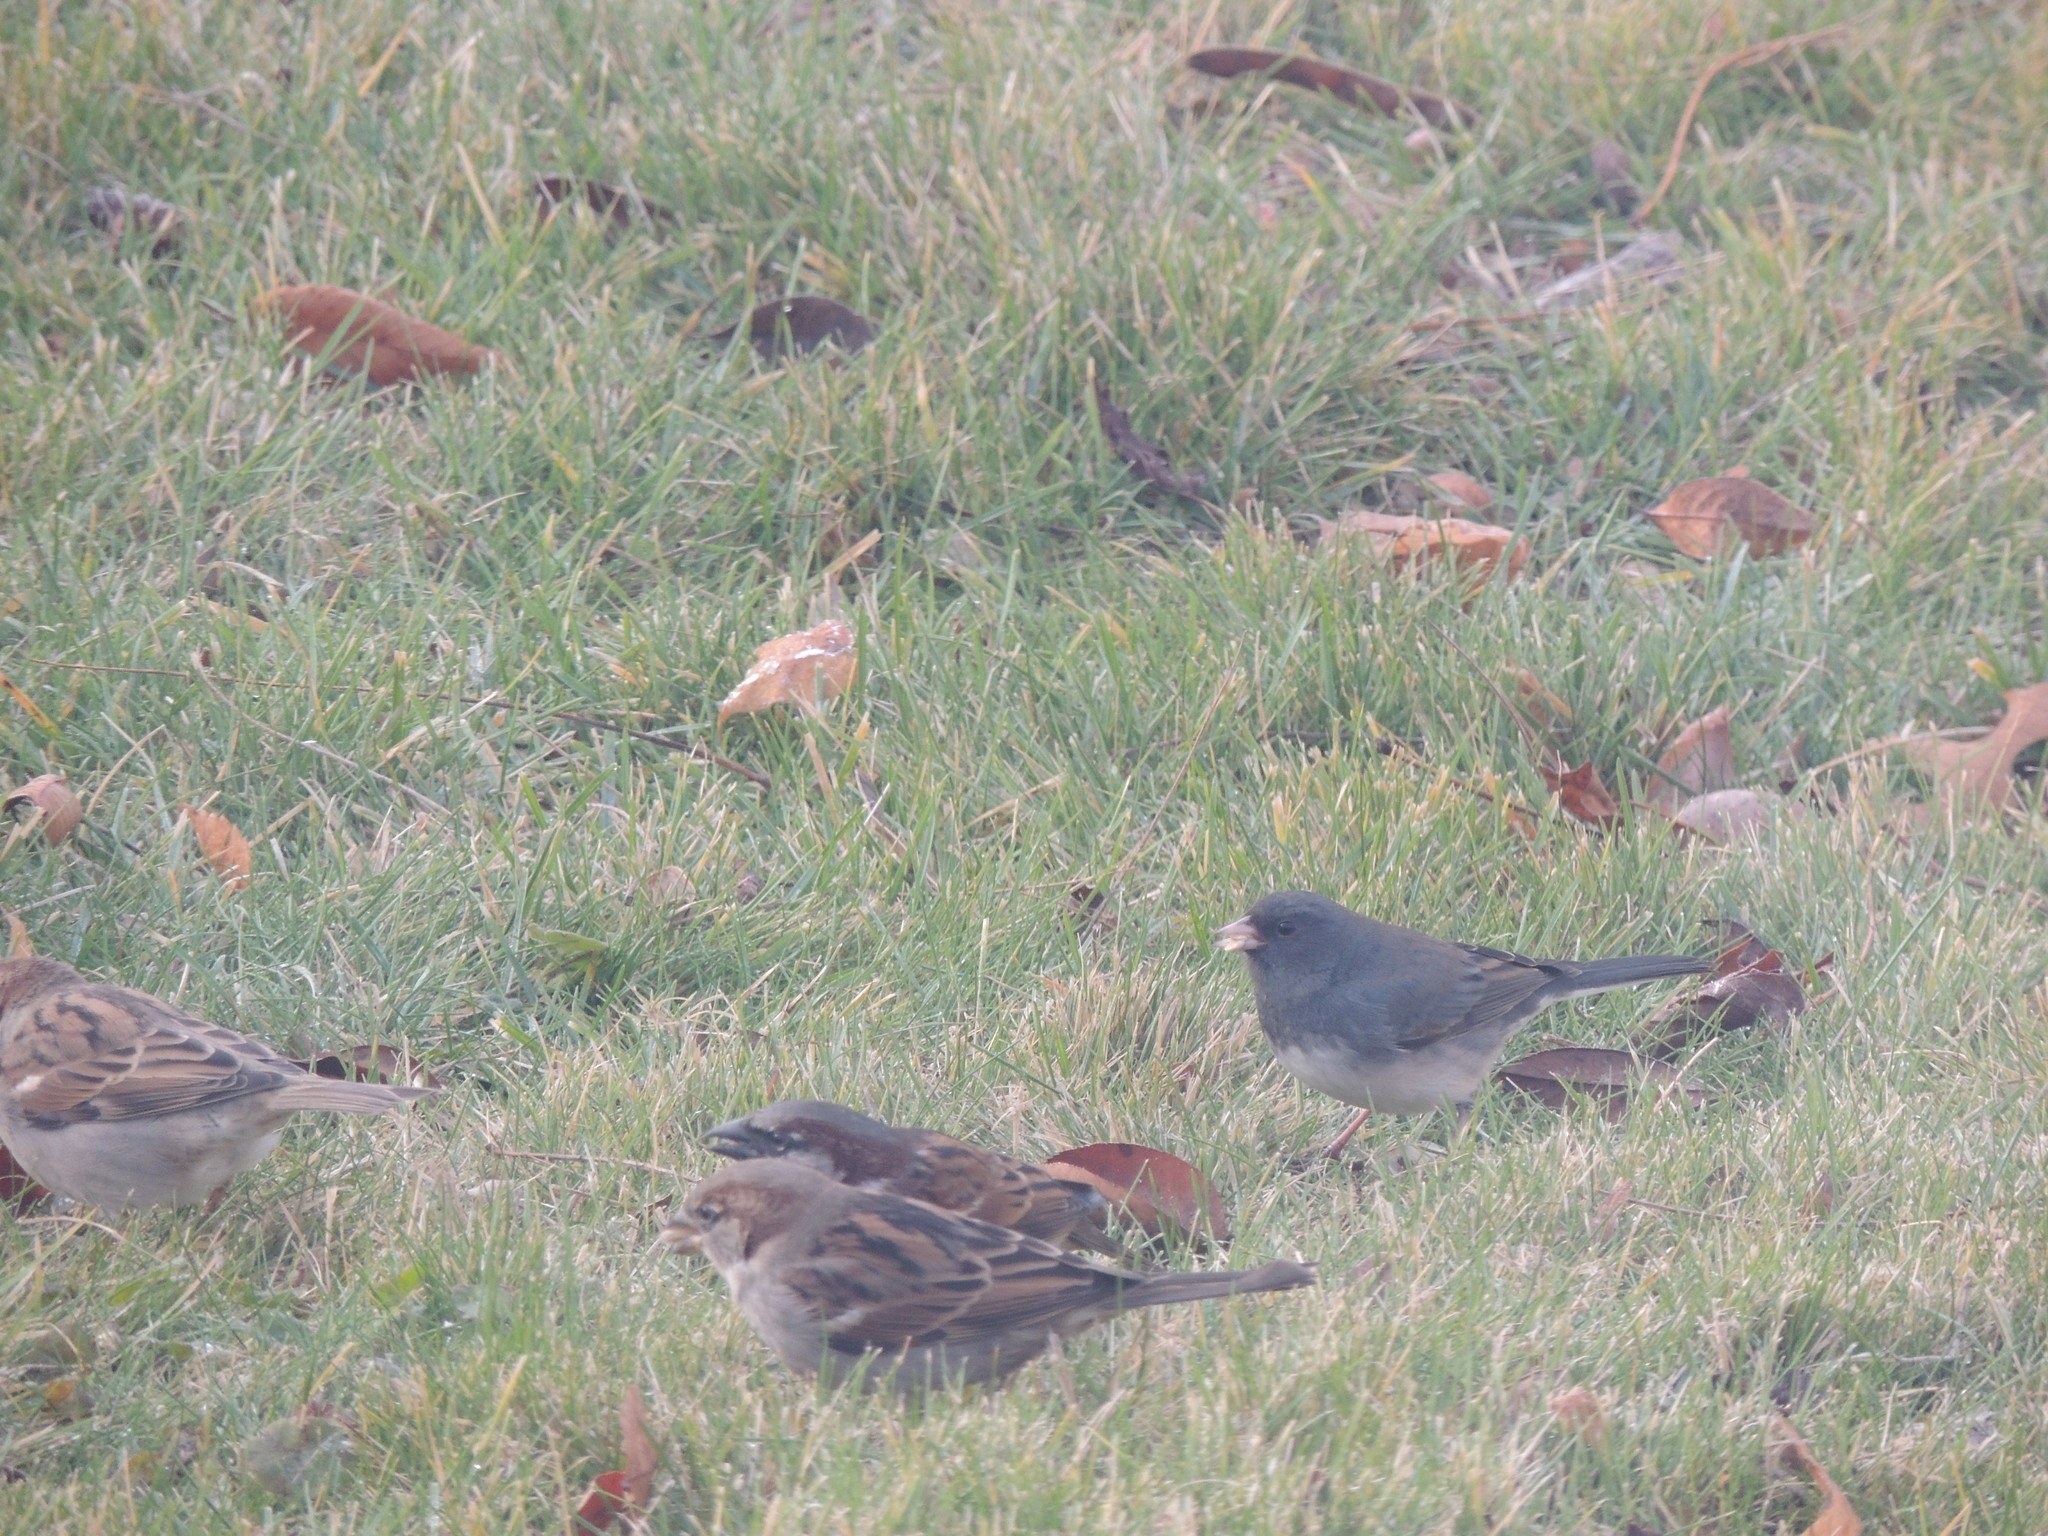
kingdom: Animalia
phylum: Chordata
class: Aves
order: Passeriformes
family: Passerellidae
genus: Junco
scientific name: Junco hyemalis
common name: Dark-eyed junco
